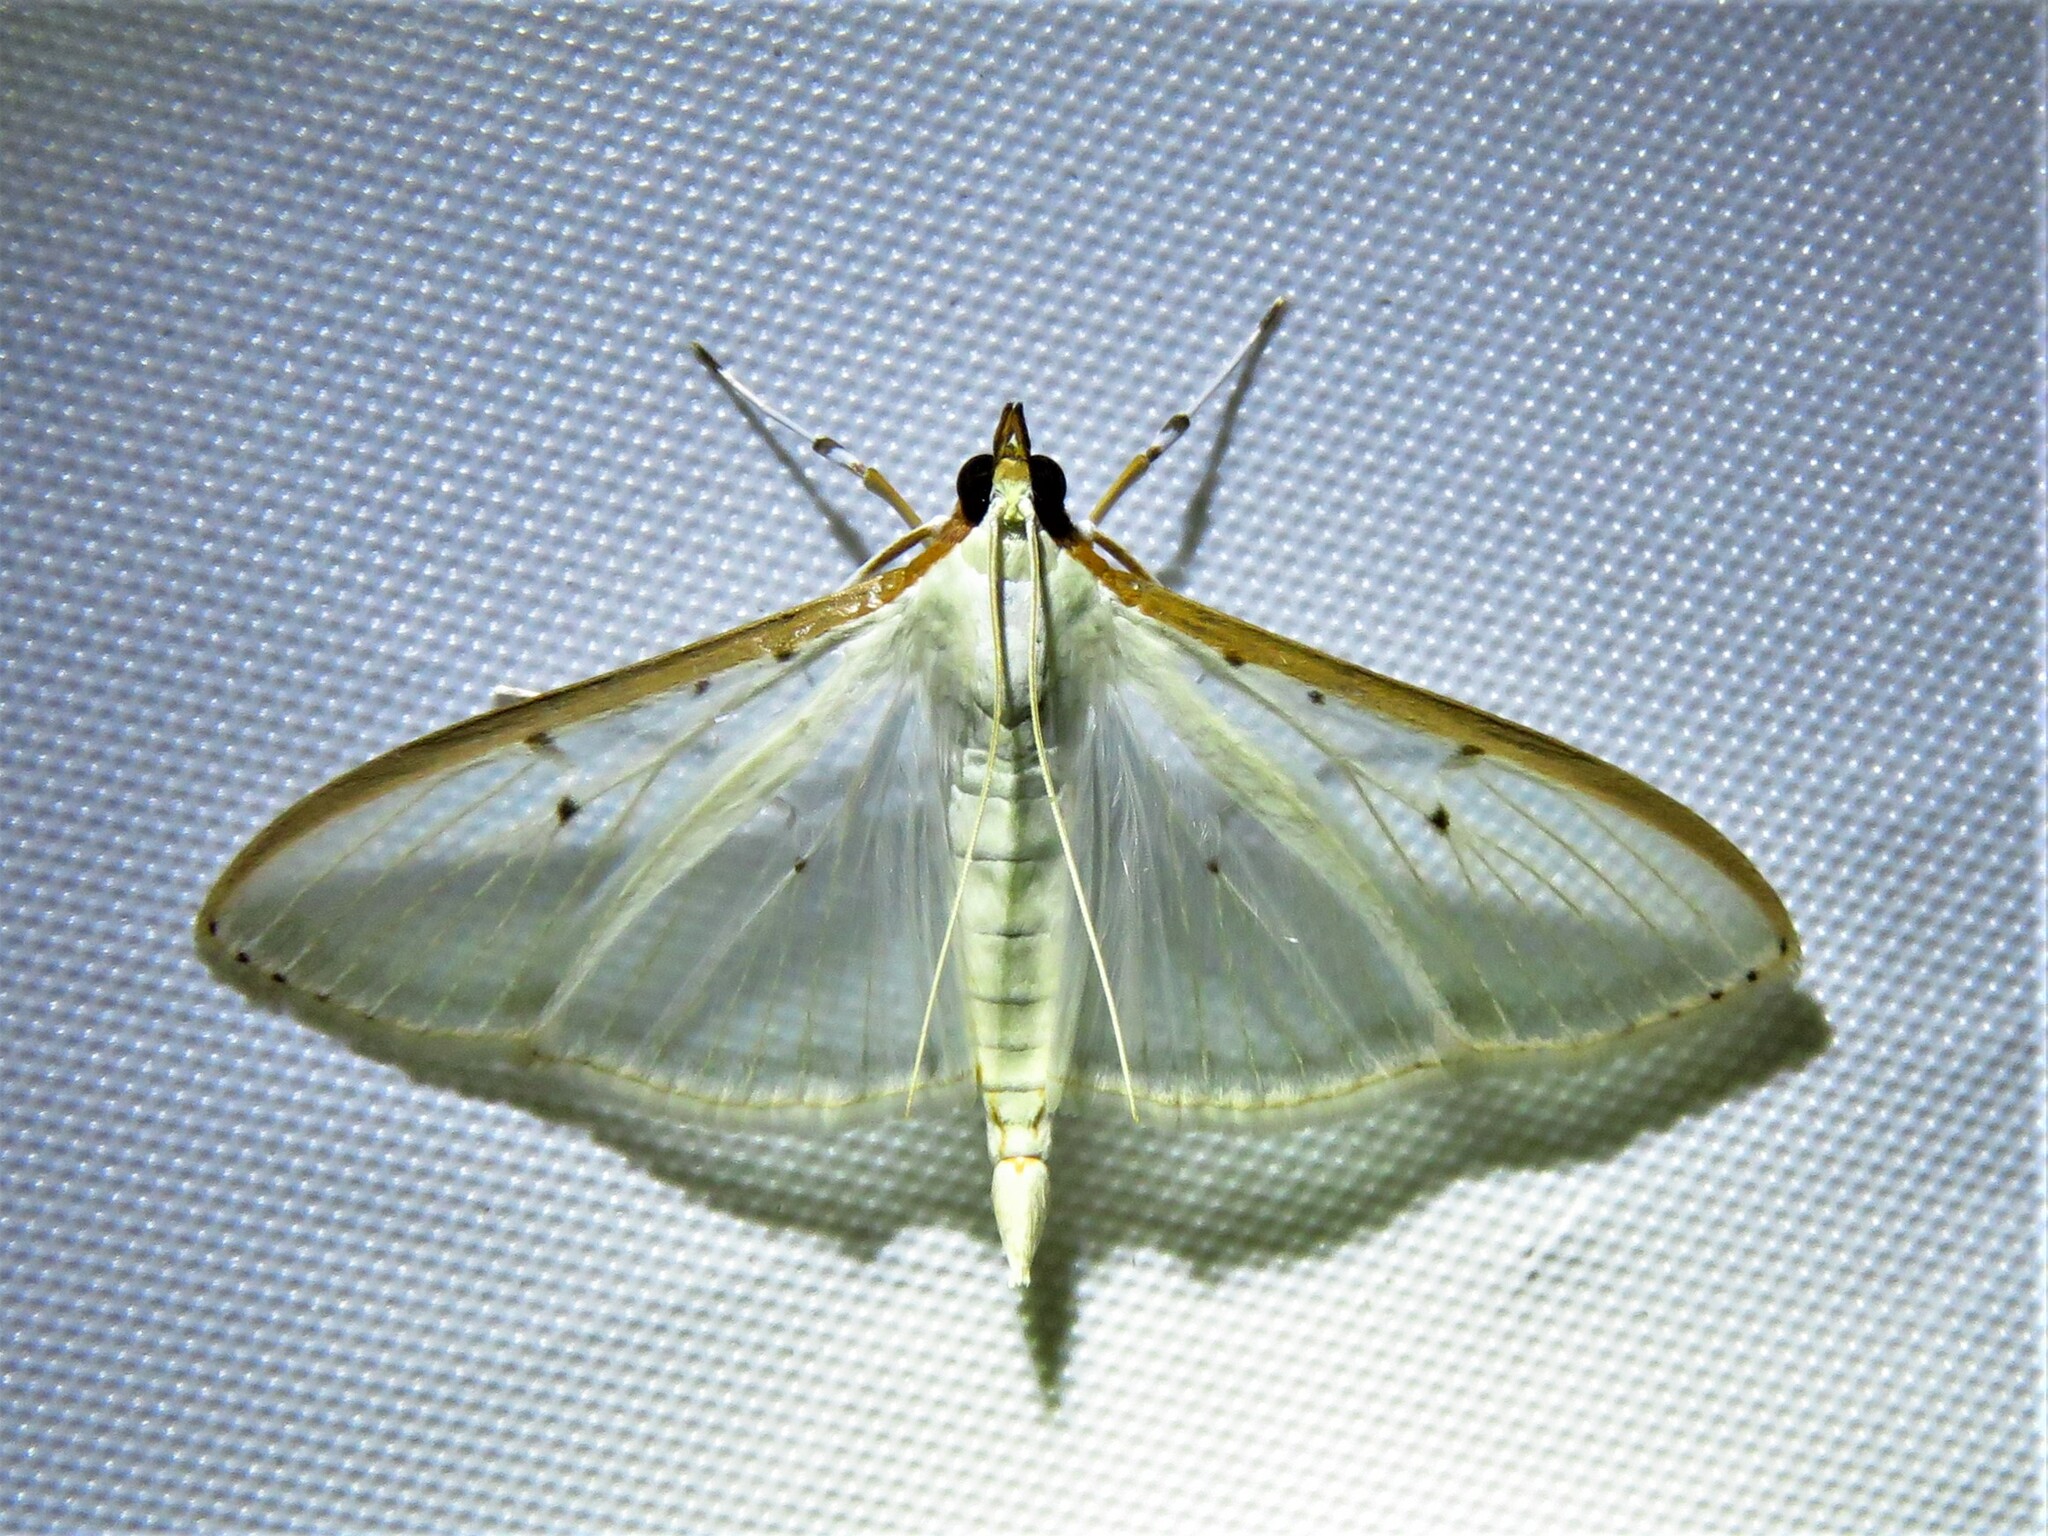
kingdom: Animalia
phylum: Arthropoda
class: Insecta
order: Lepidoptera
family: Crambidae
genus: Palpita
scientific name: Palpita quadristigmalis
